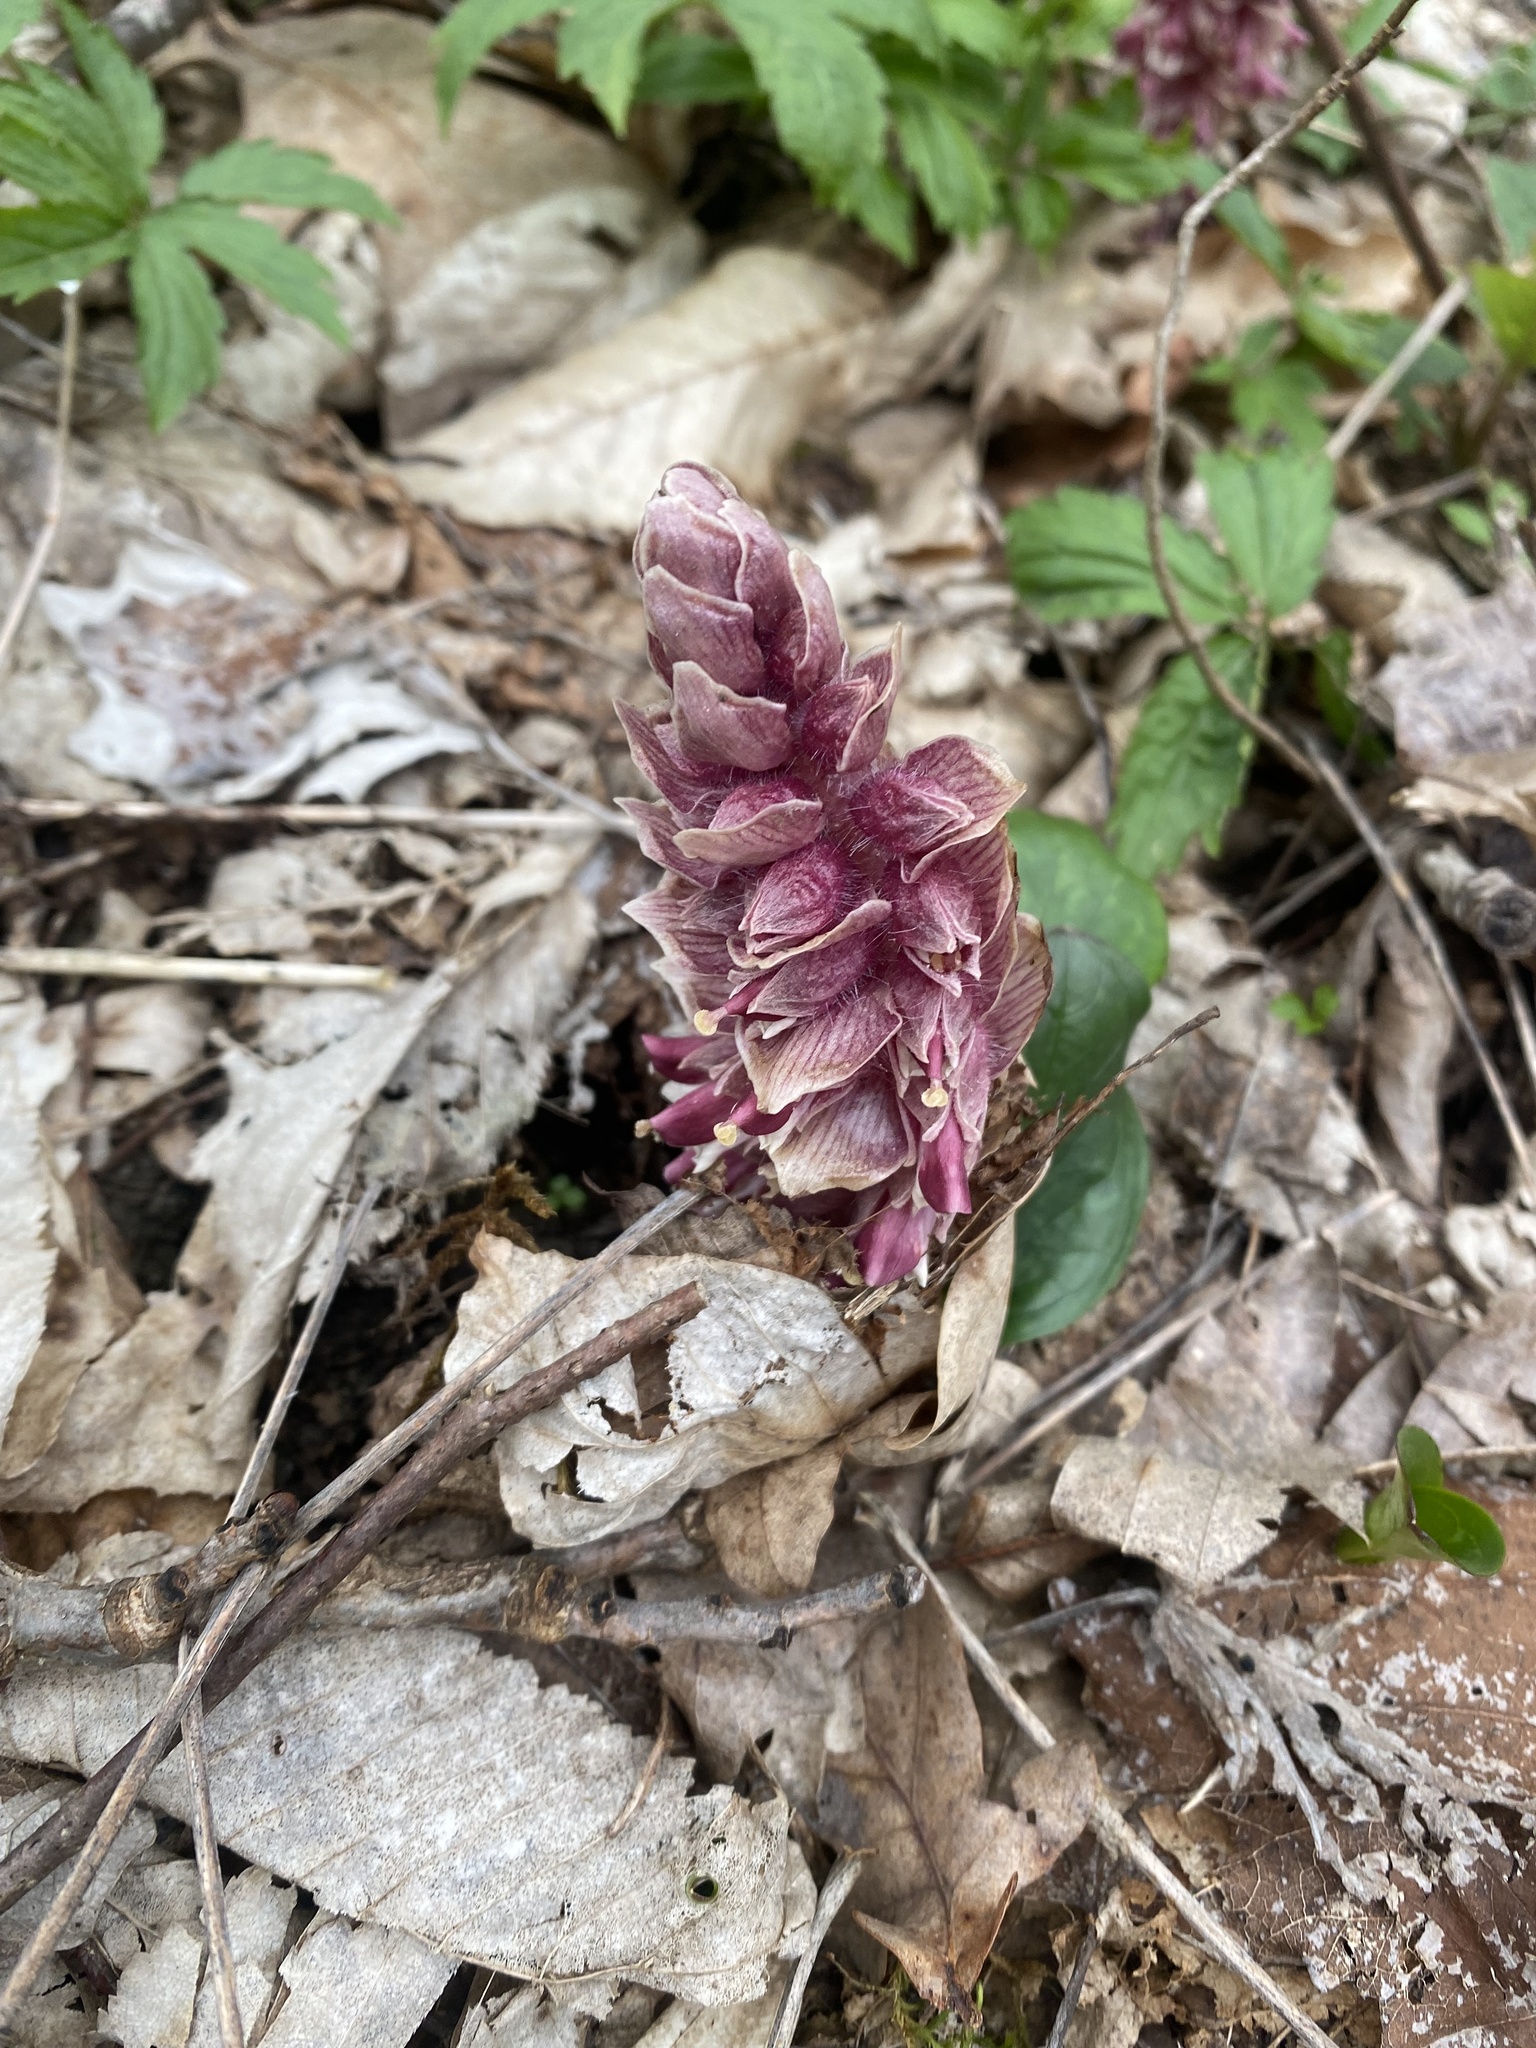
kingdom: Plantae
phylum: Tracheophyta
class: Magnoliopsida
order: Lamiales
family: Orobanchaceae
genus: Lathraea
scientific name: Lathraea squamaria
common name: Toothwort
